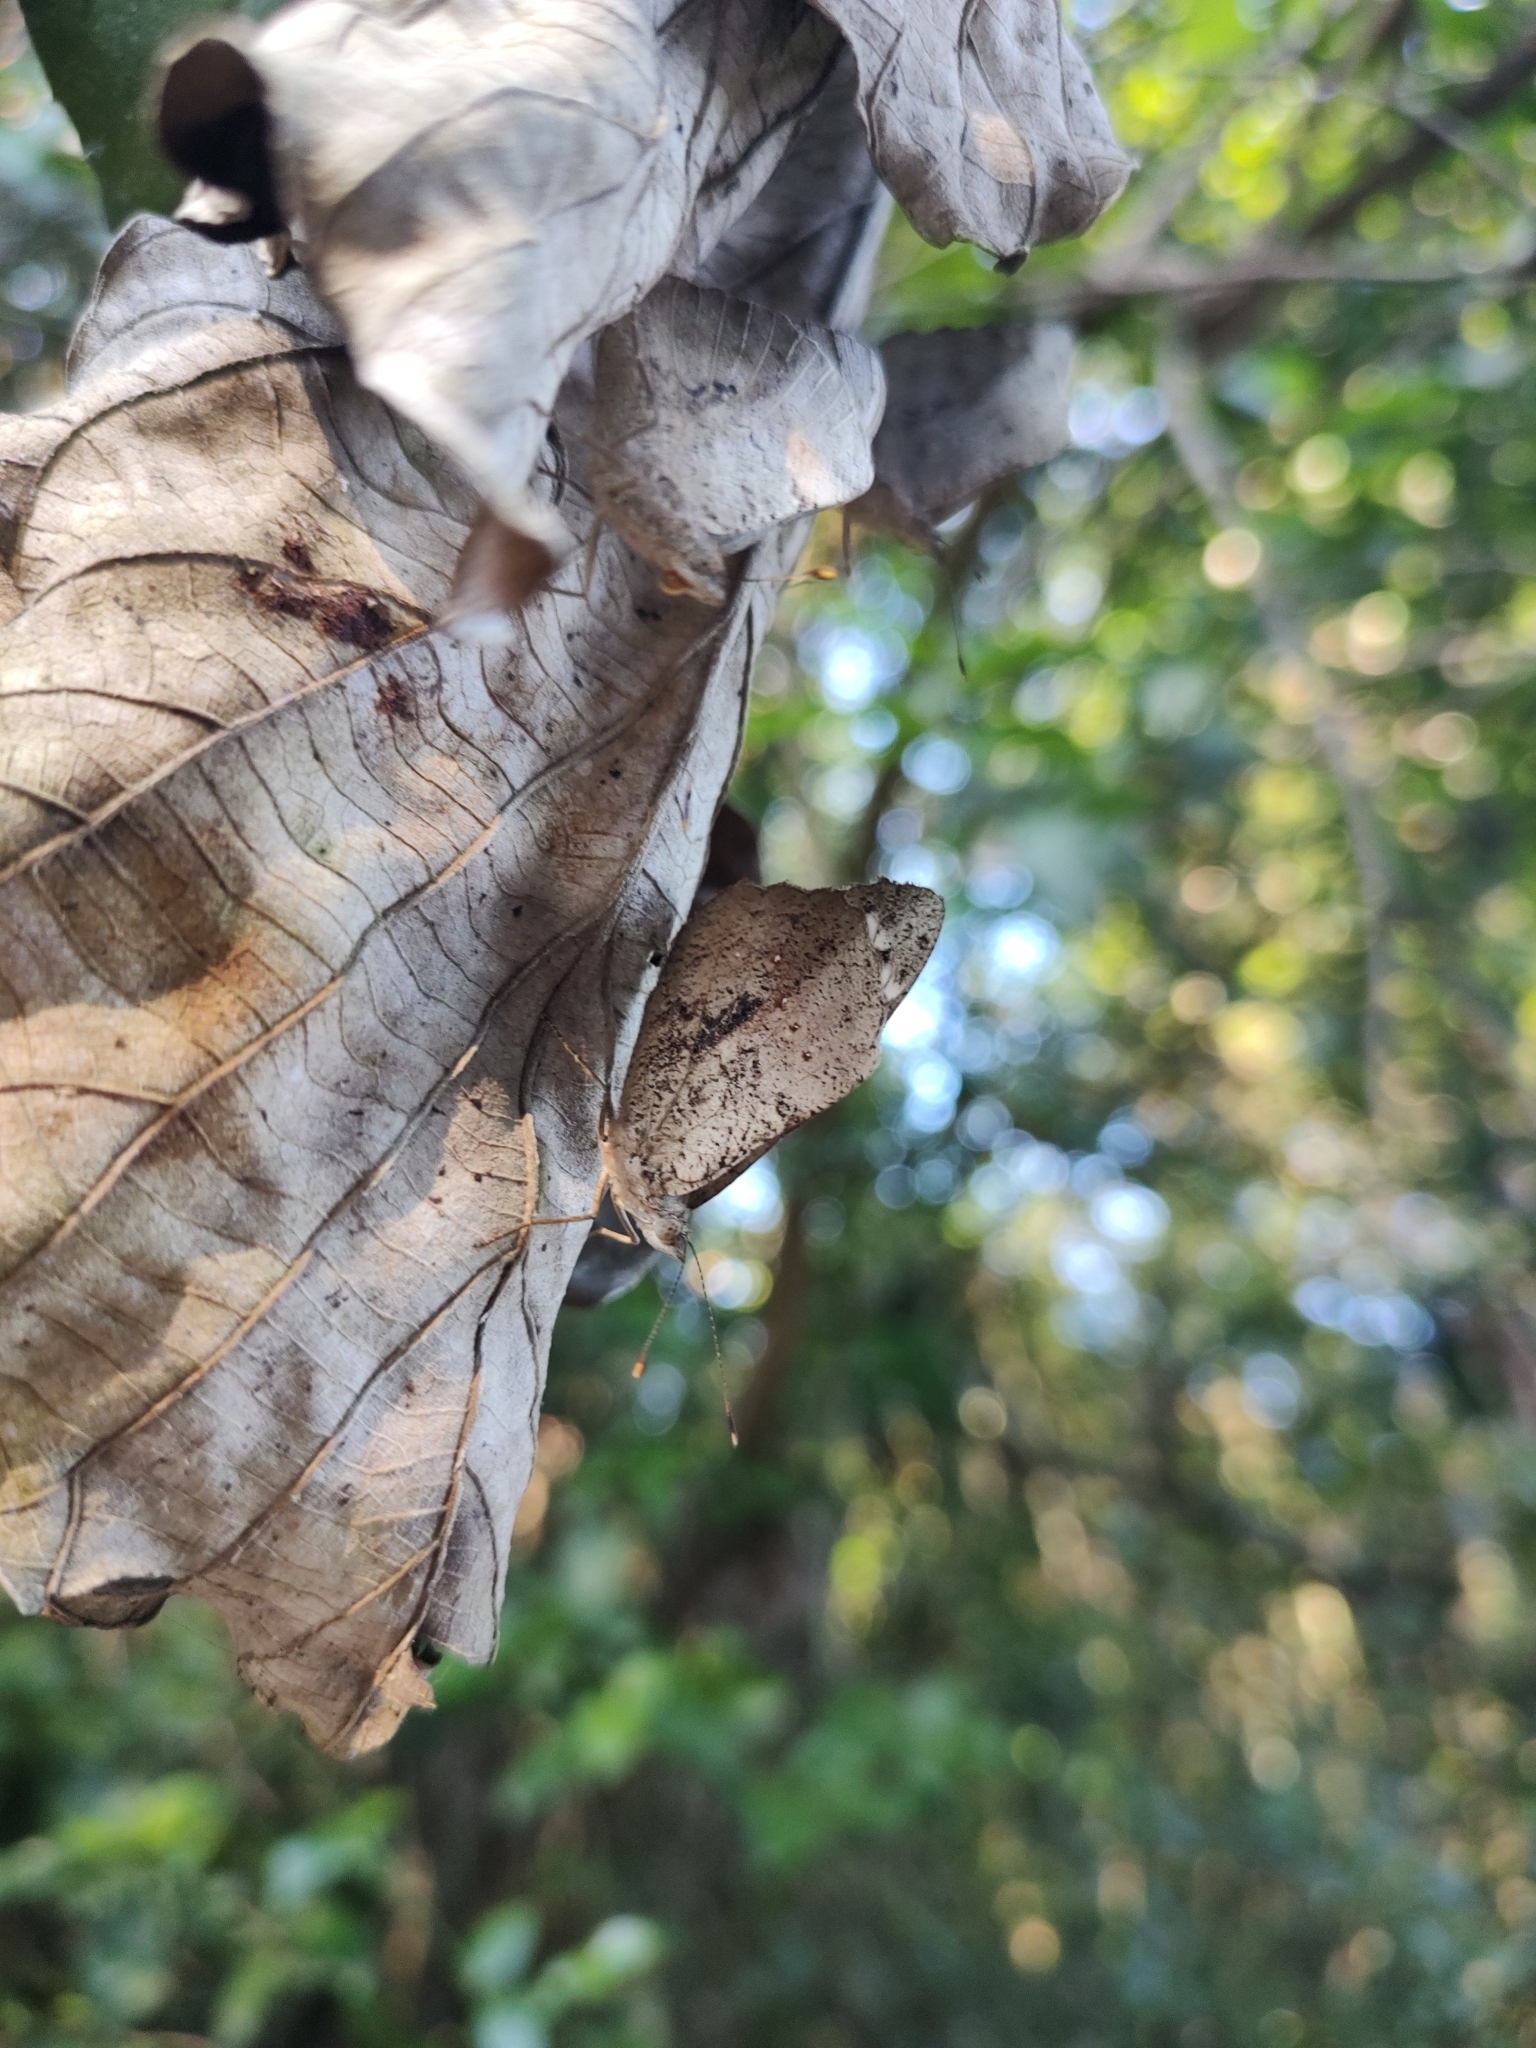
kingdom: Animalia
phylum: Arthropoda
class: Insecta
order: Lepidoptera
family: Nymphalidae
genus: Eunica
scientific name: Eunica eburnea
